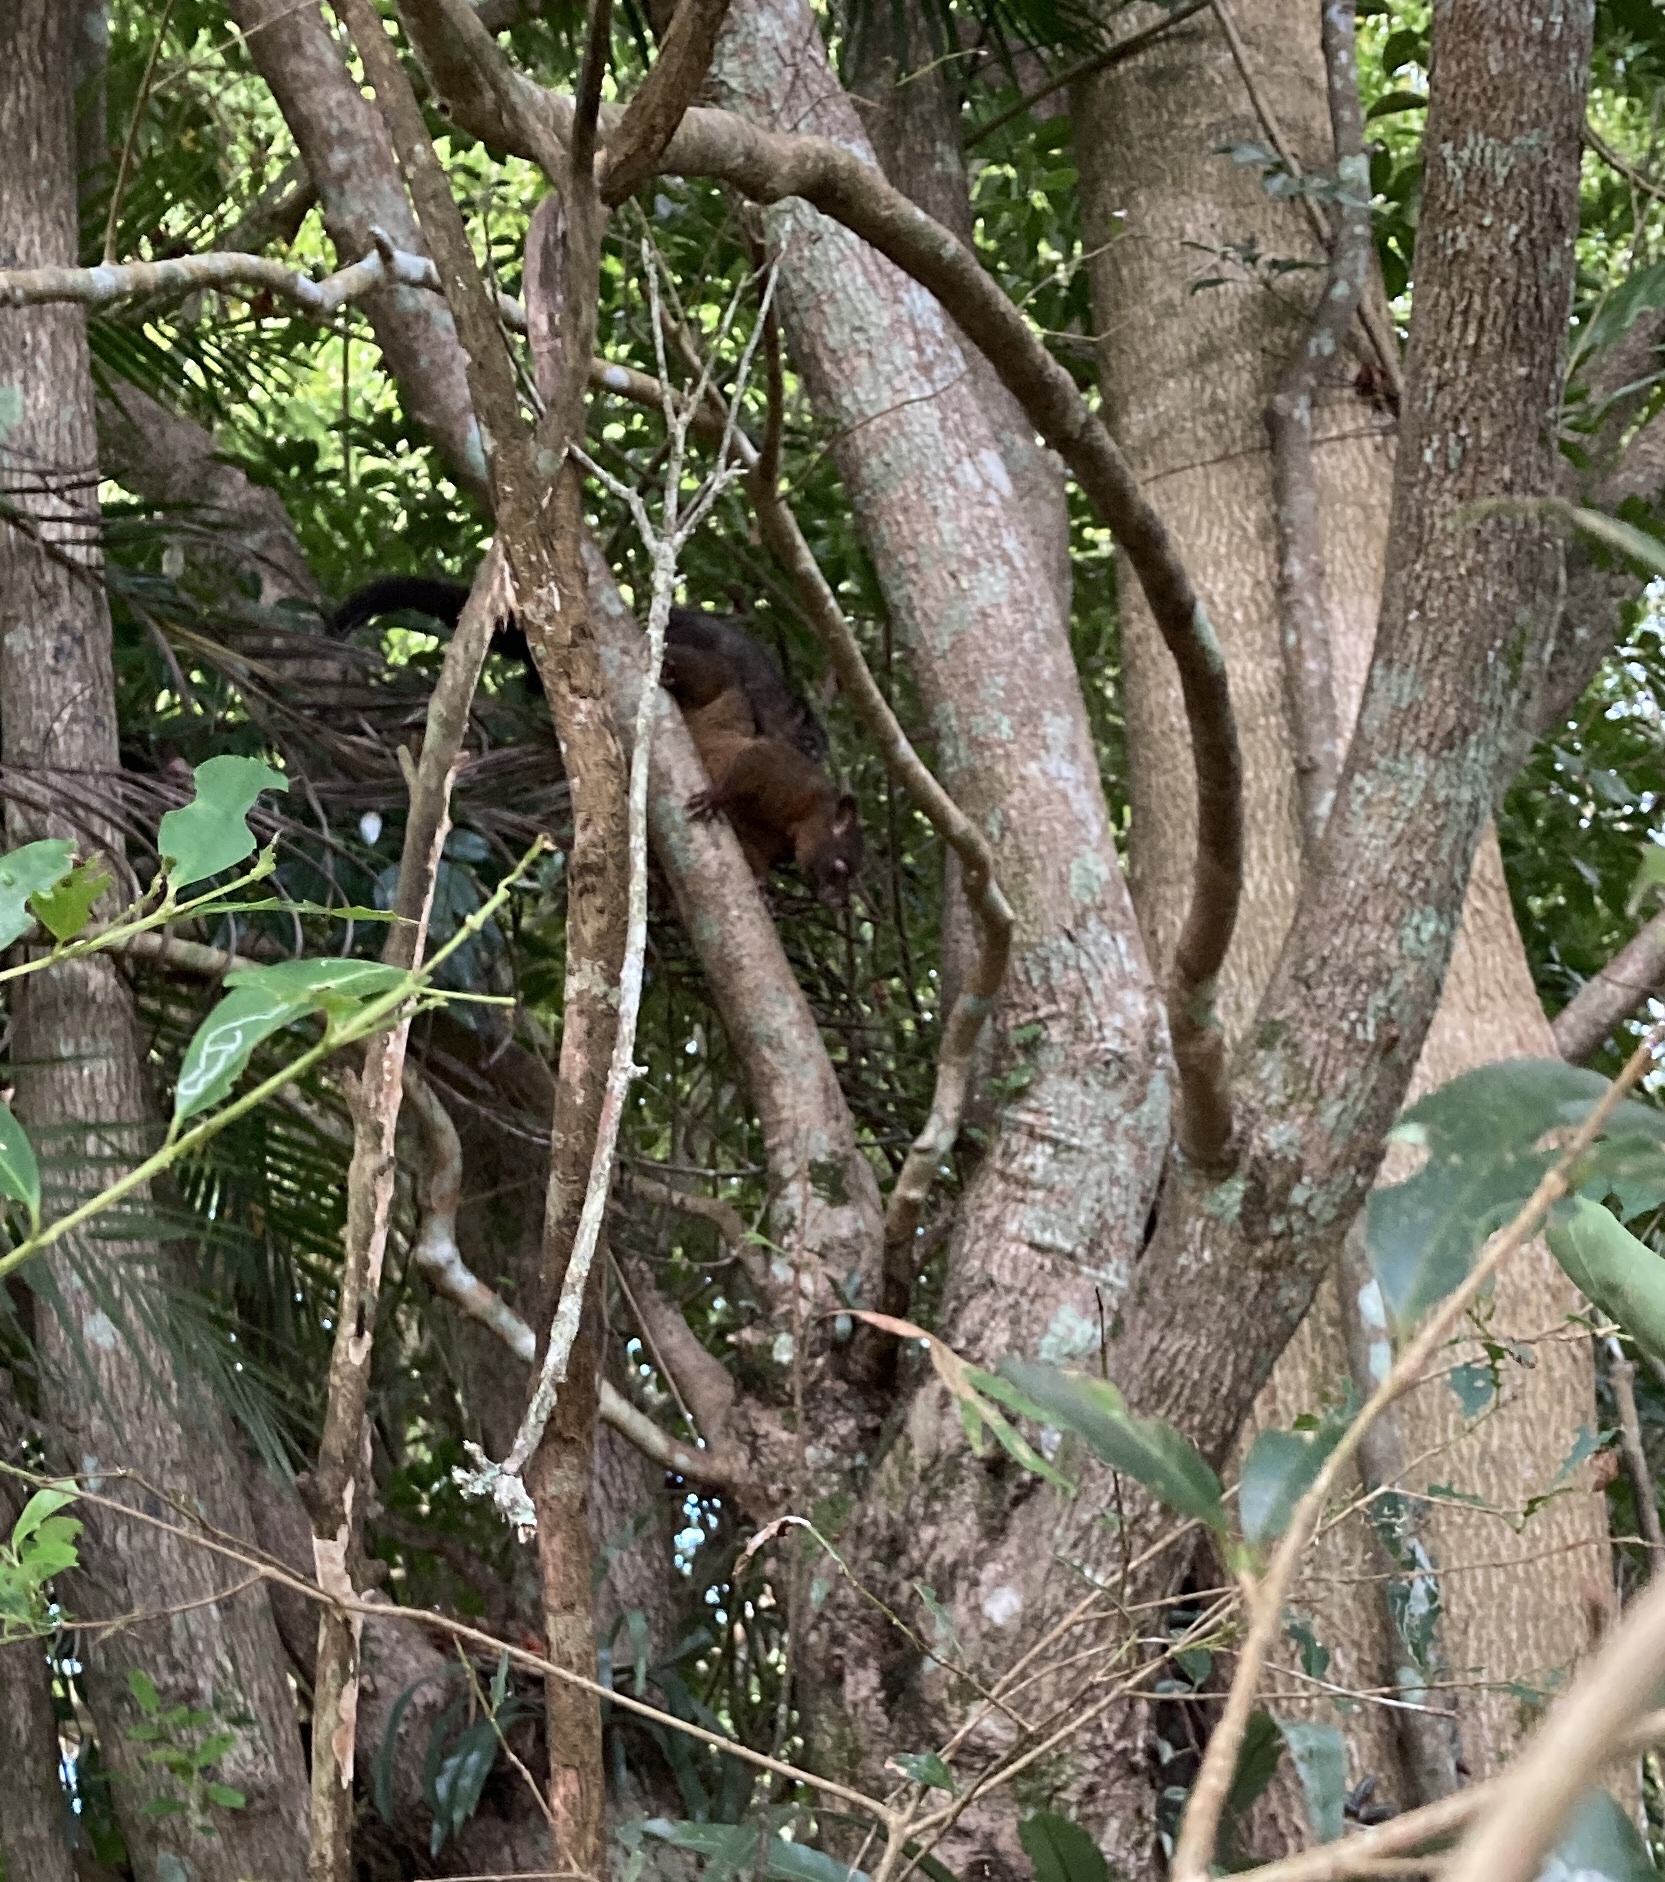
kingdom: Animalia
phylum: Chordata
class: Mammalia
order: Diprotodontia
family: Phalangeridae
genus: Trichosurus
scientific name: Trichosurus johnstonii
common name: Coppery brushtail
